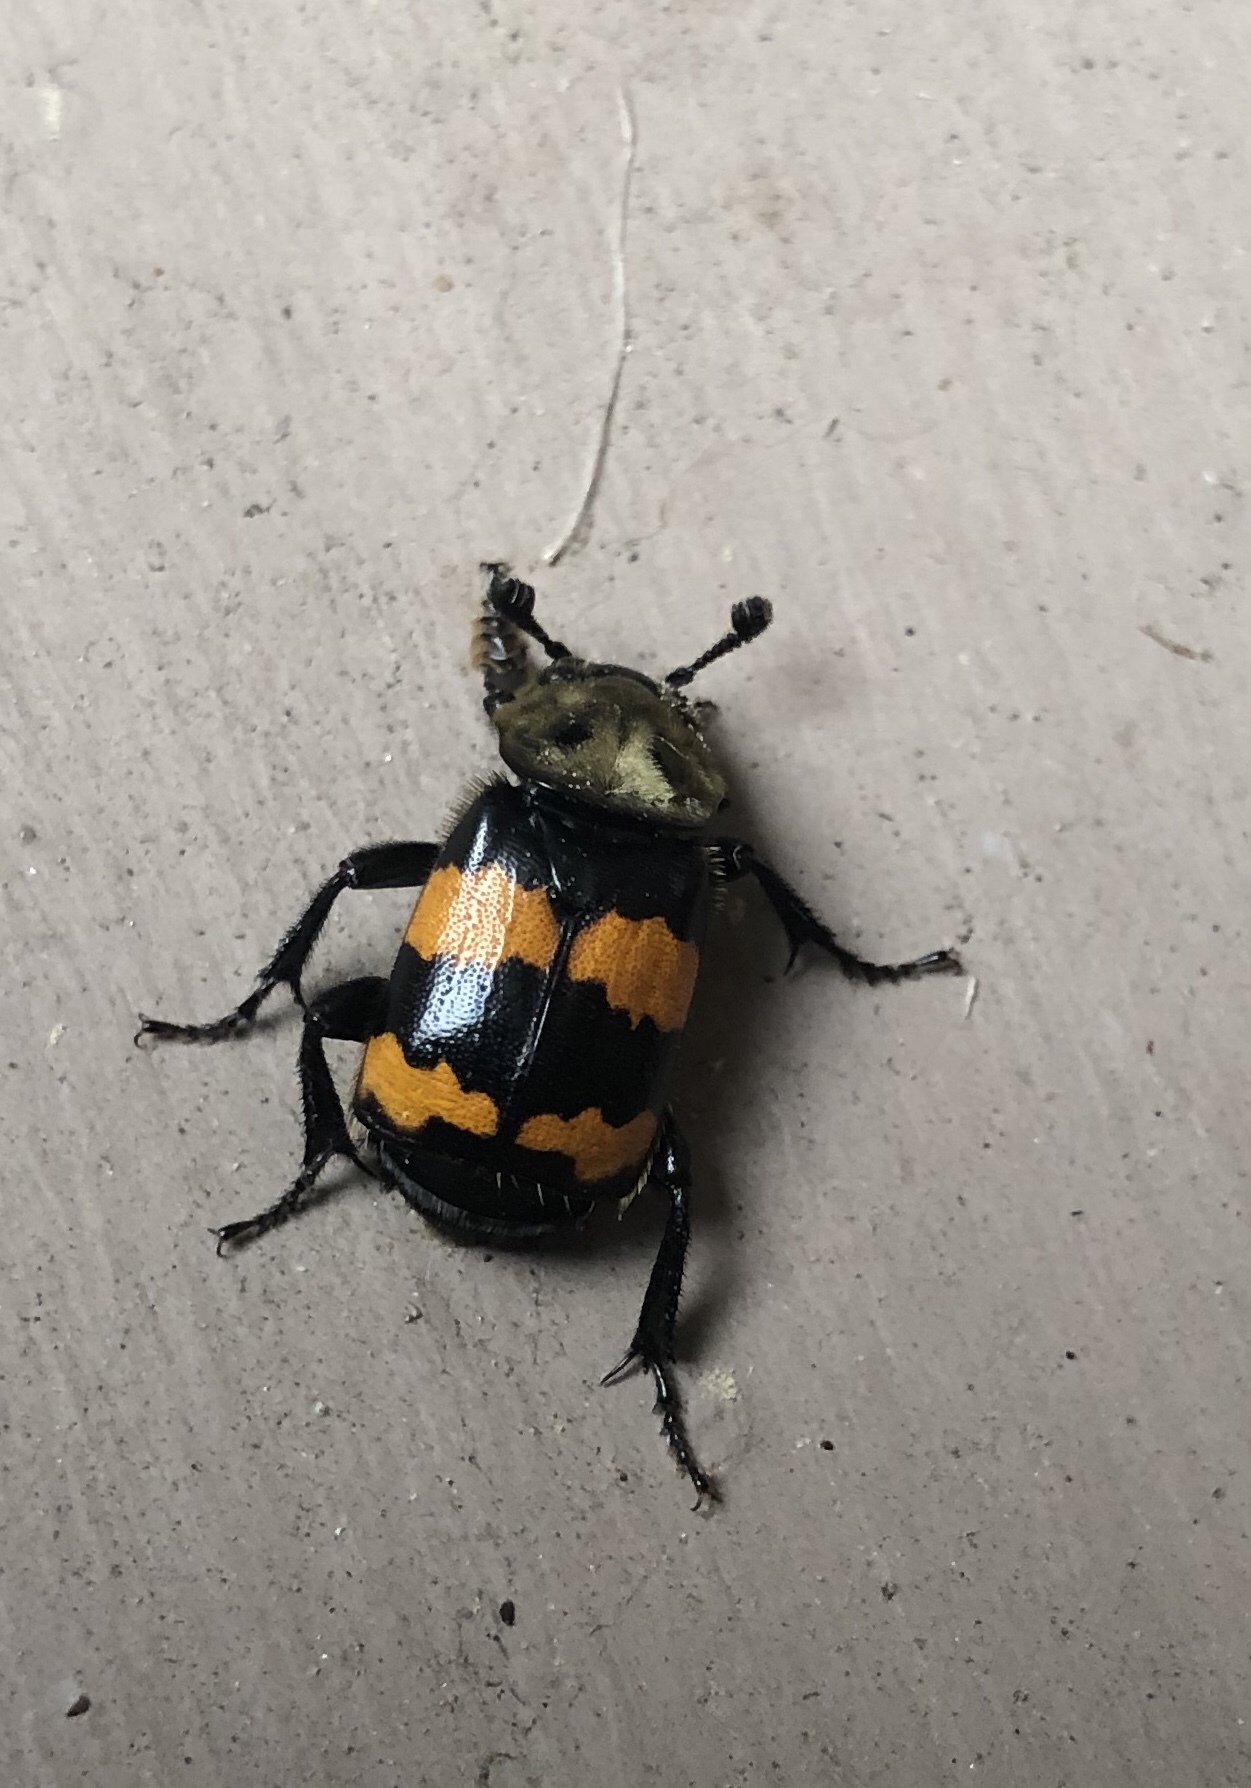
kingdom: Animalia
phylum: Arthropoda
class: Insecta
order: Coleoptera
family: Staphylinidae
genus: Nicrophorus
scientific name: Nicrophorus tomentosus
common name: Tomentose burying beetle
